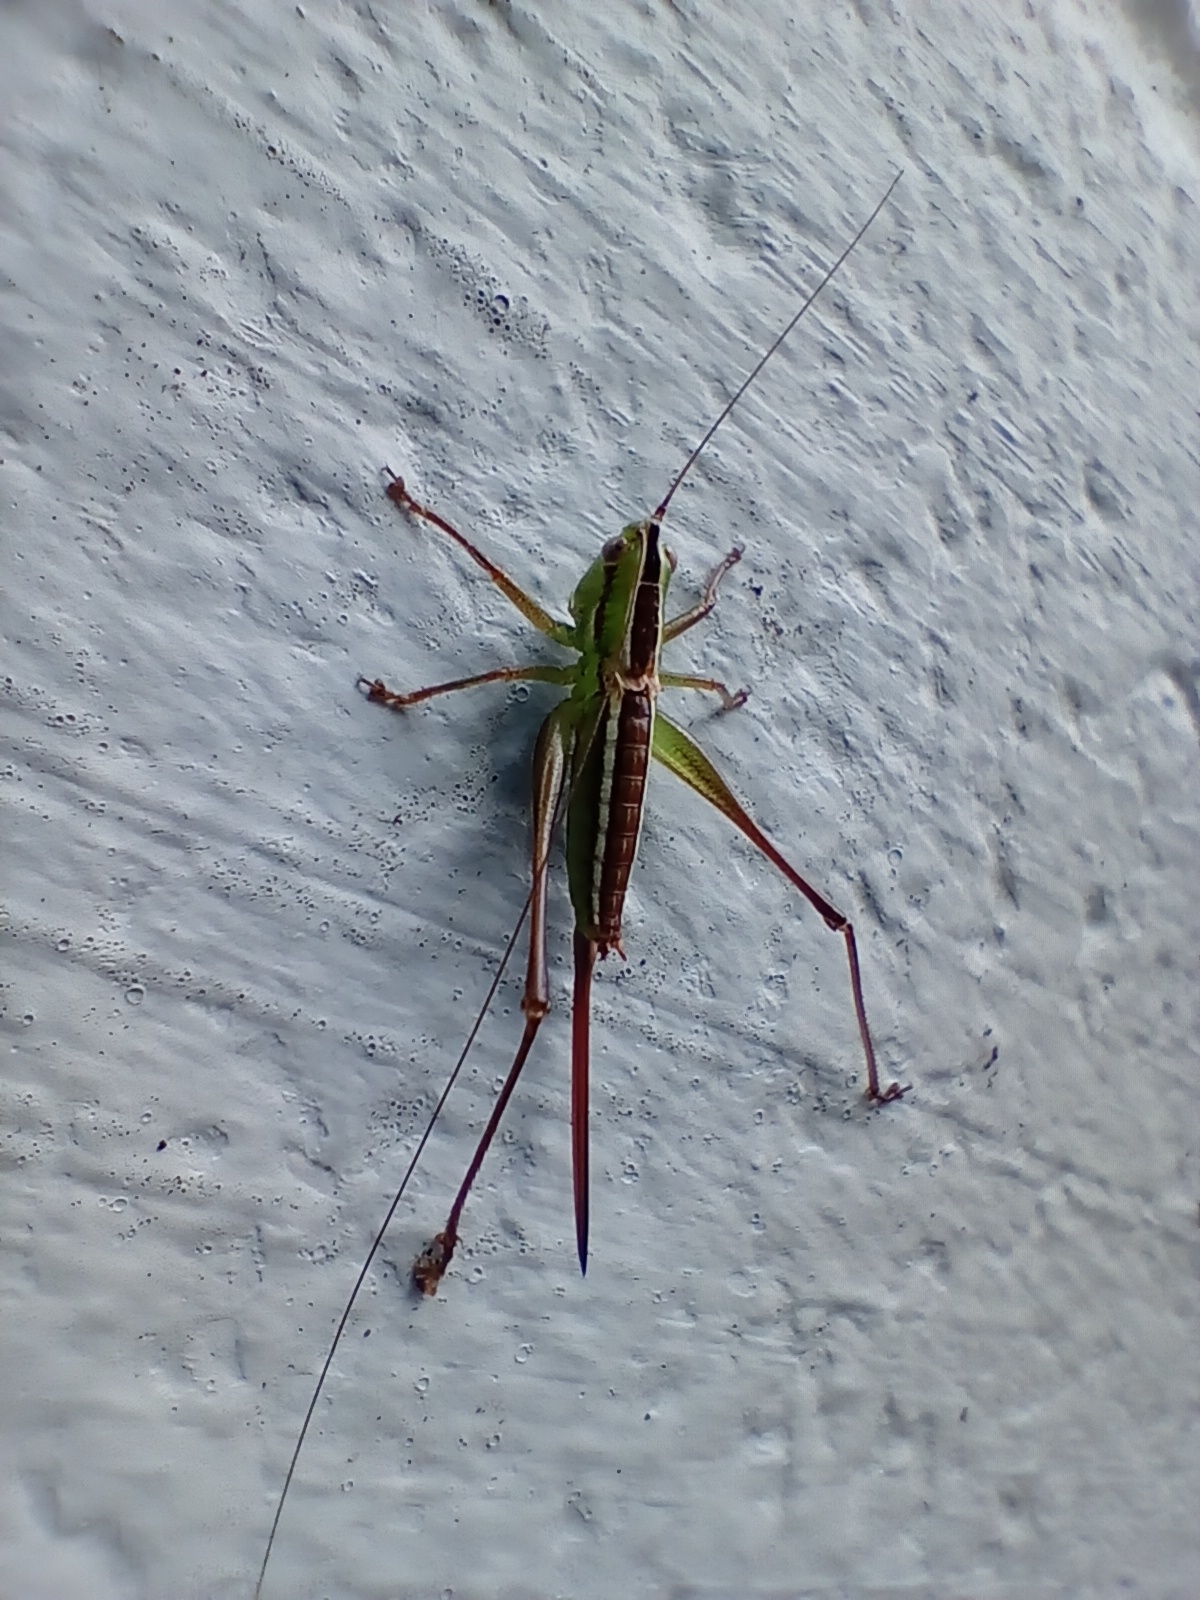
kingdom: Animalia
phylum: Arthropoda
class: Insecta
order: Orthoptera
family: Tettigoniidae
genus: Conocephalus
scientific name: Conocephalus bilineatus
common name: Small meadow katydid
